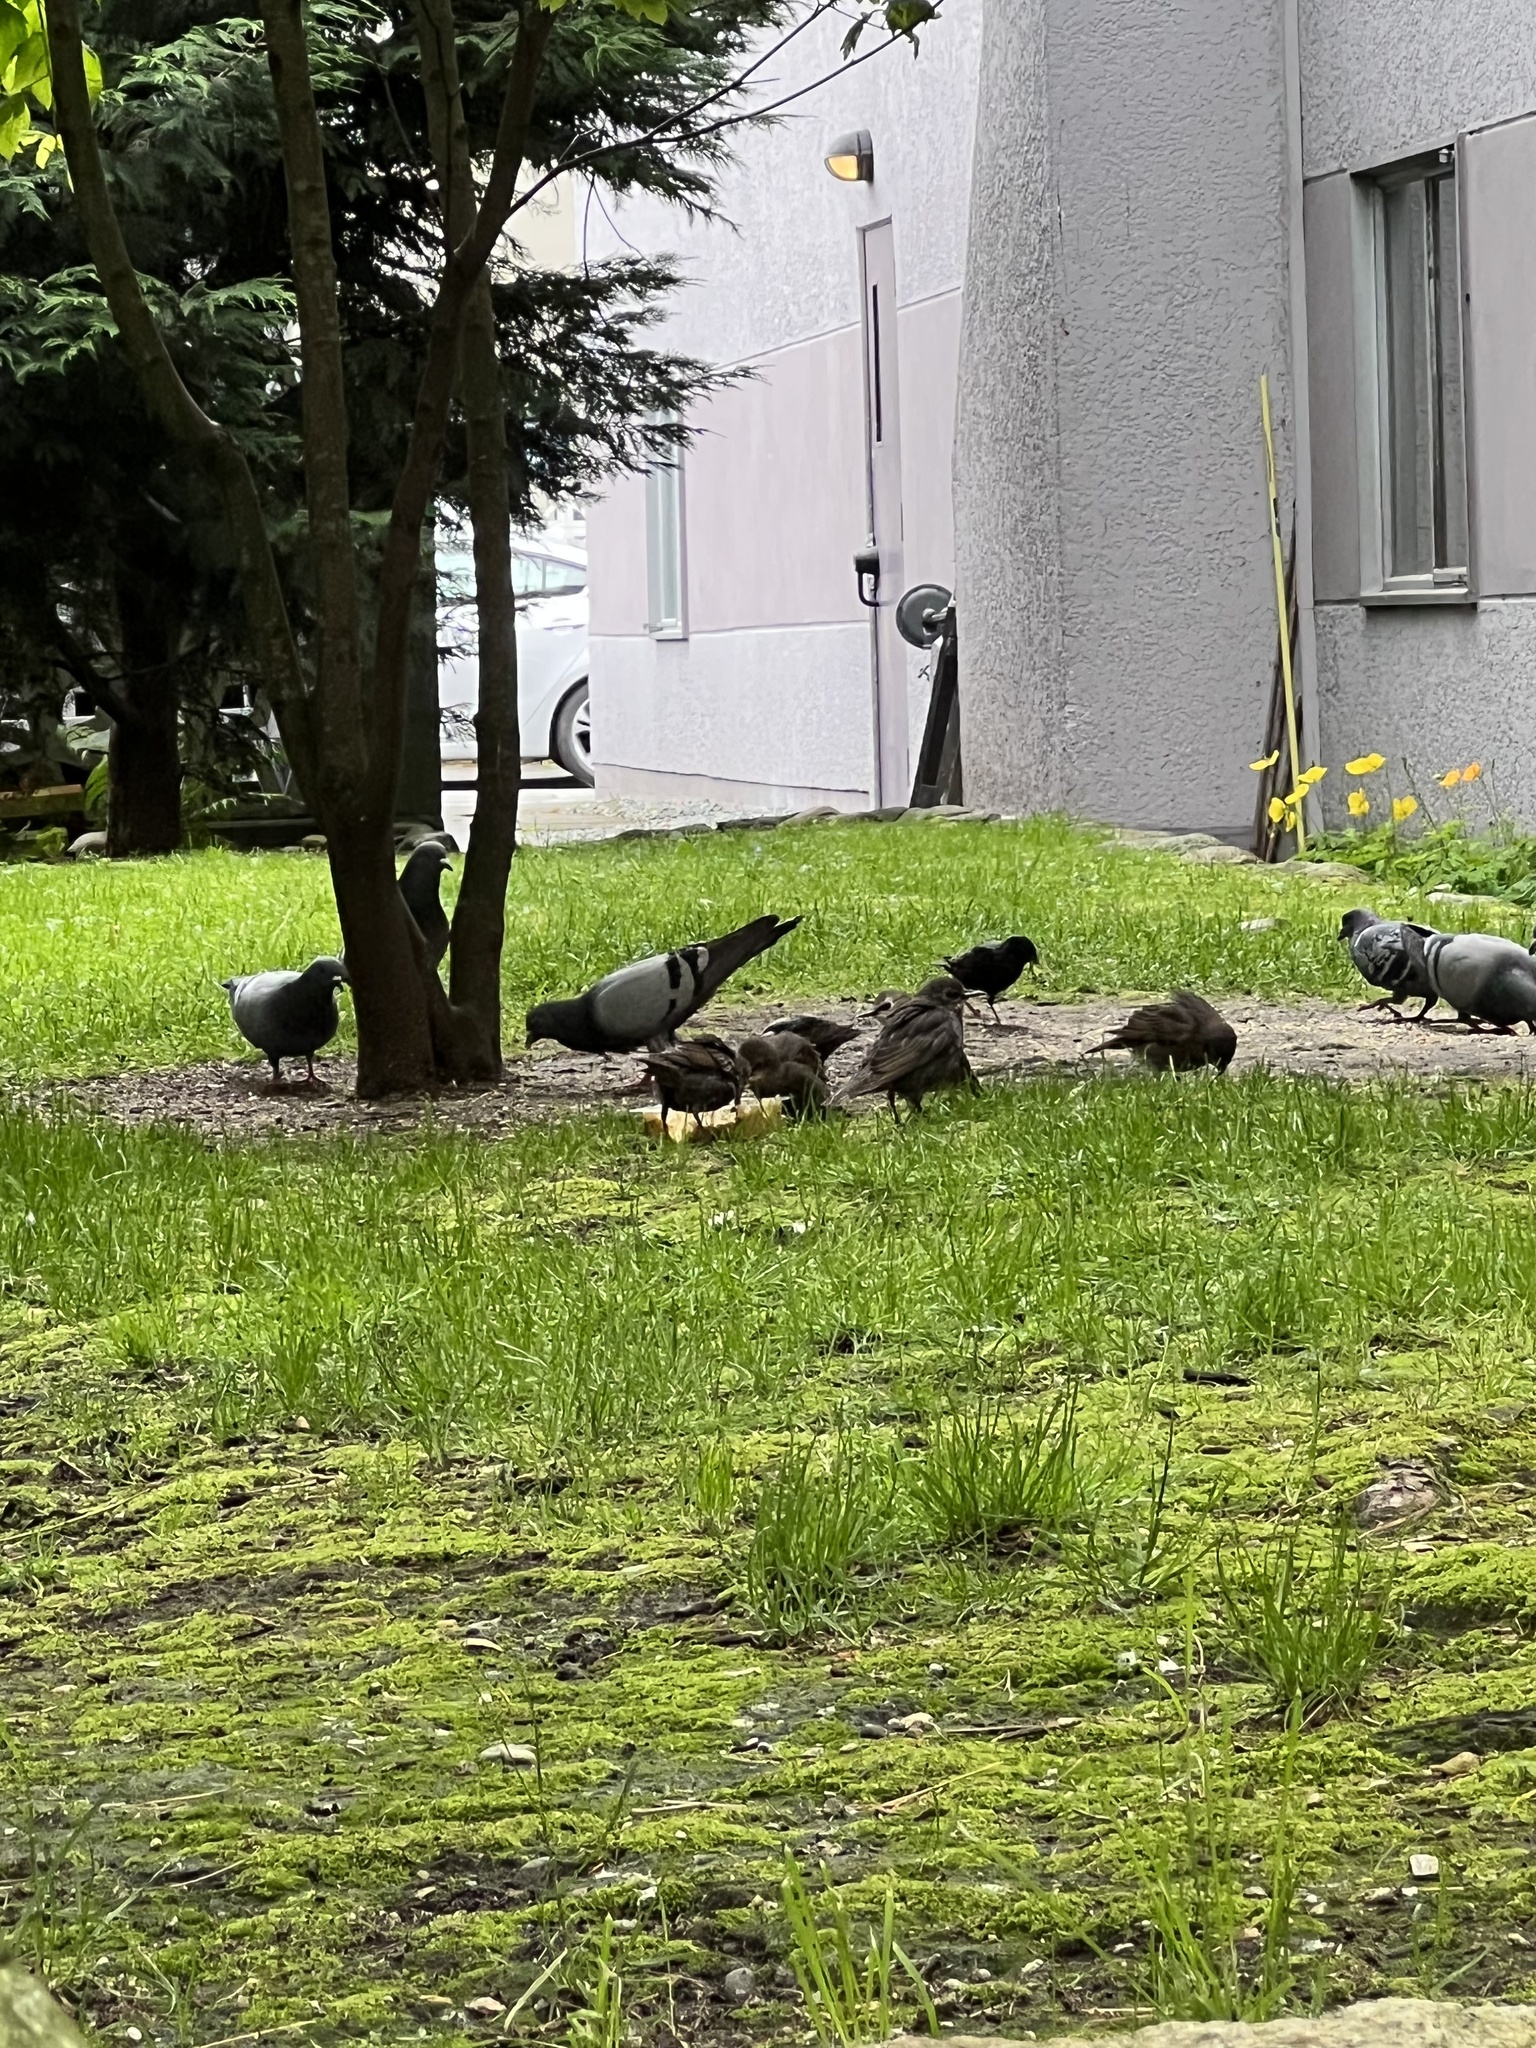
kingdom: Animalia
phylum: Chordata
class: Aves
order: Passeriformes
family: Sturnidae
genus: Sturnus
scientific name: Sturnus vulgaris
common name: Common starling
